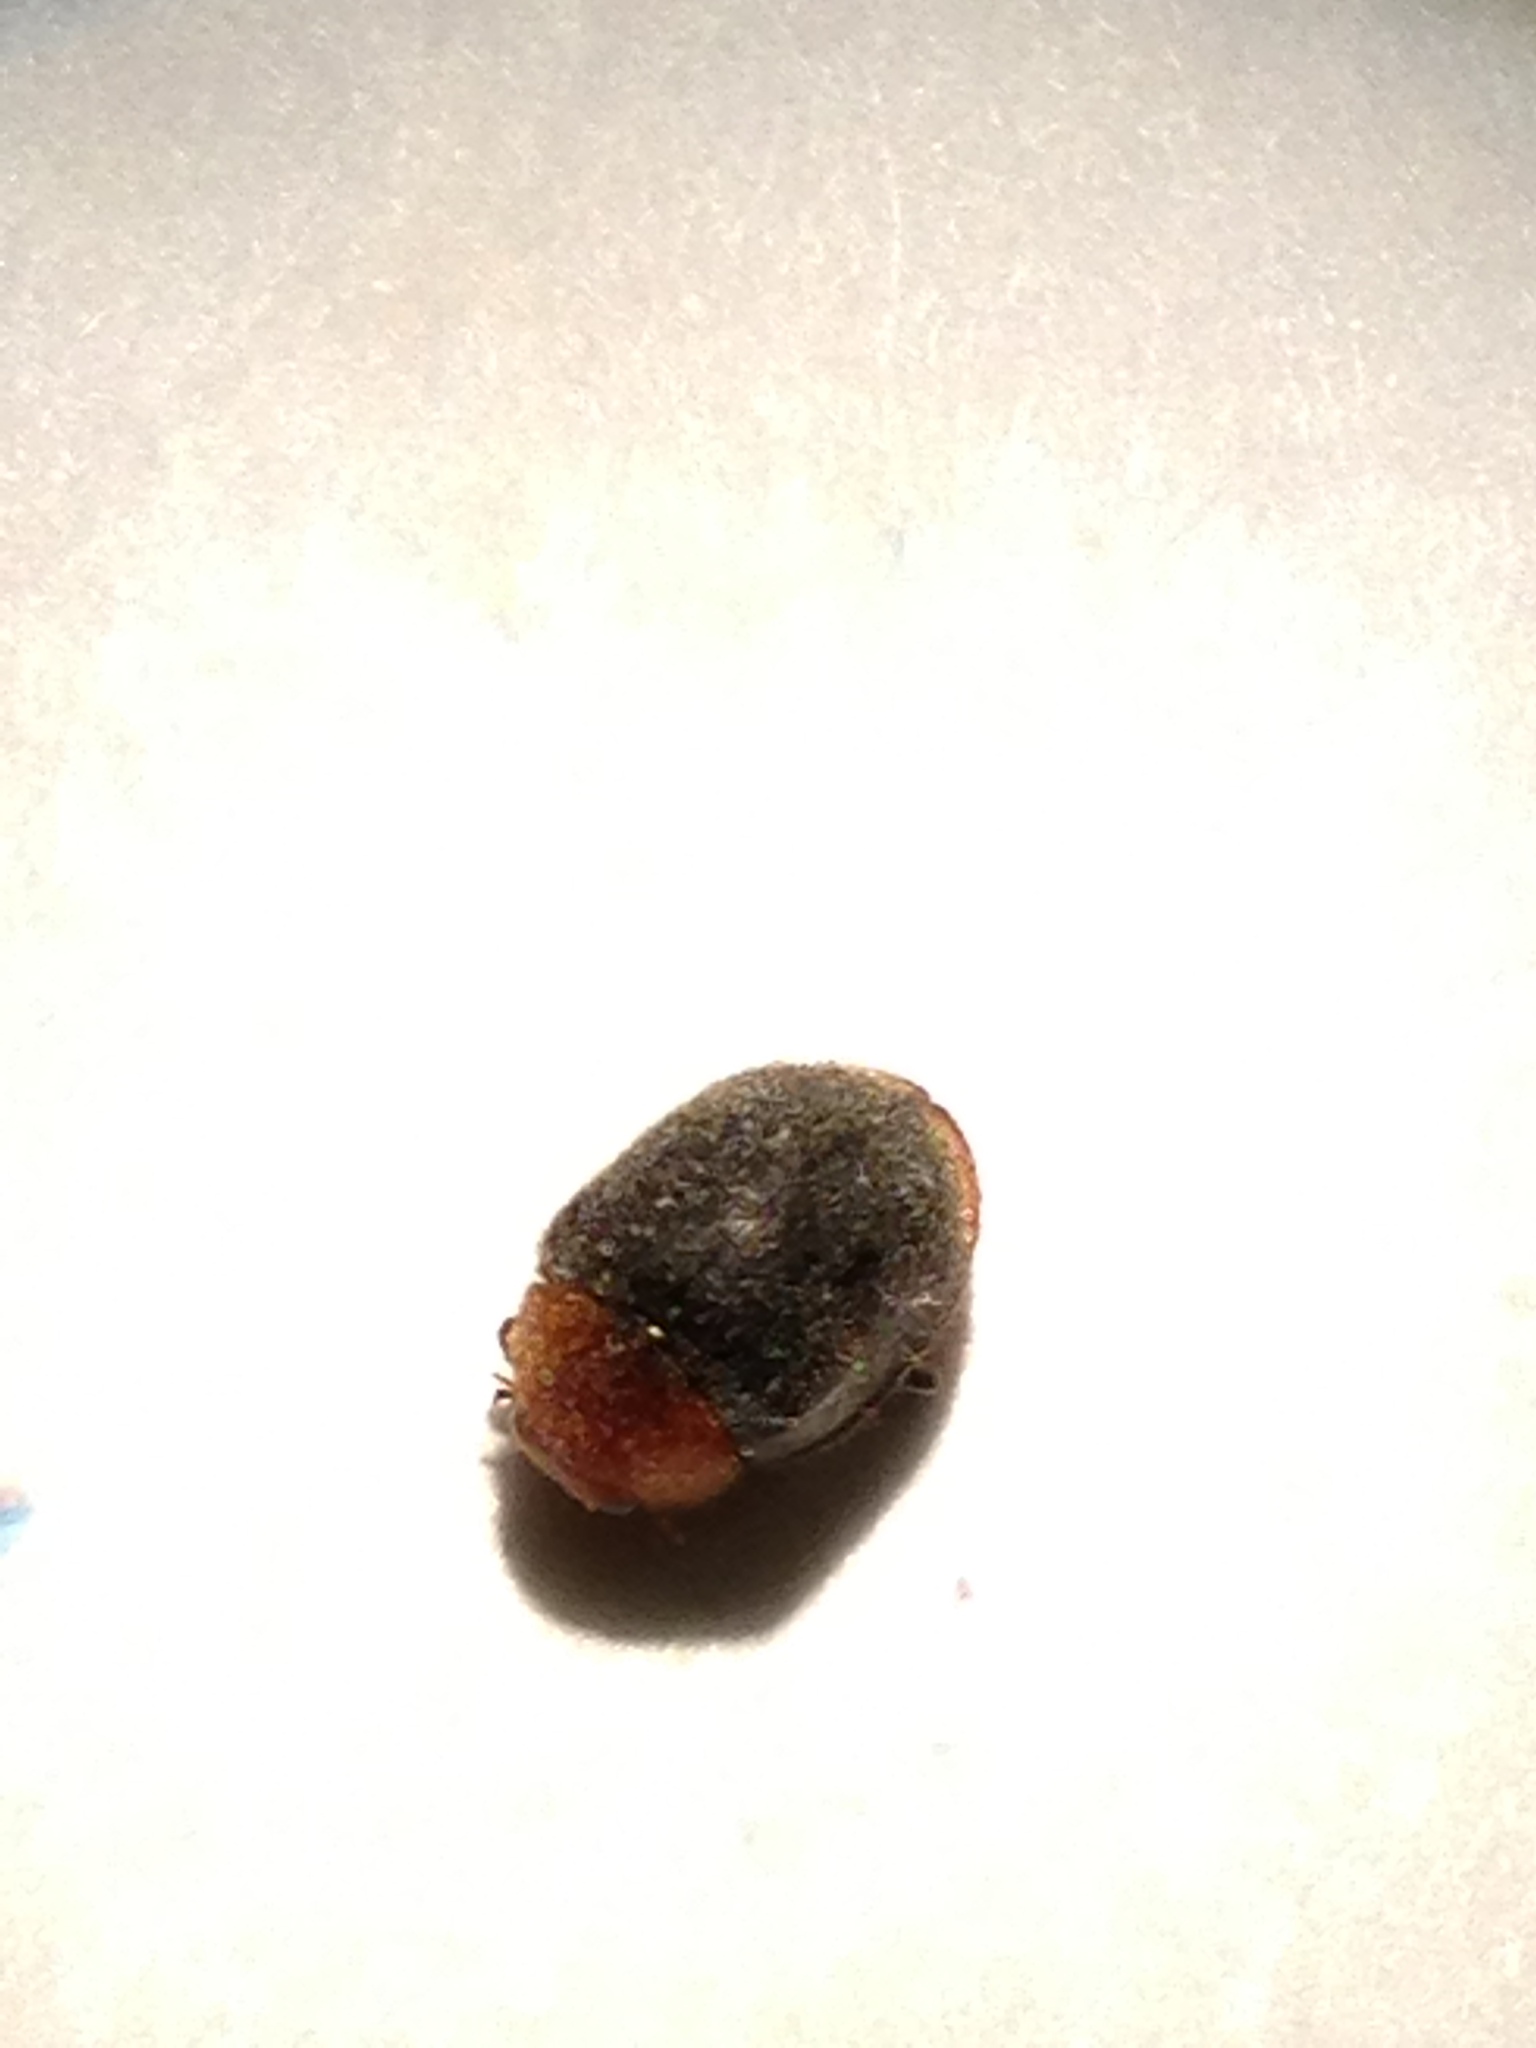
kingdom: Animalia
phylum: Arthropoda
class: Insecta
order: Coleoptera
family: Coccinellidae
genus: Cryptolaemus
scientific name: Cryptolaemus montrouzieri
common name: Mealybug destroyer
